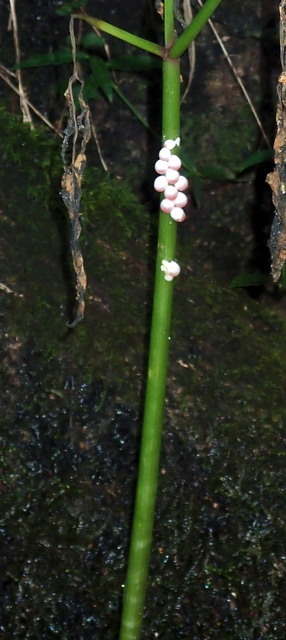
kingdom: Animalia
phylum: Mollusca
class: Gastropoda
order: Architaenioglossa
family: Ampullariidae
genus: Pomacea
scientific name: Pomacea paludosa
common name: Florida applesnail
